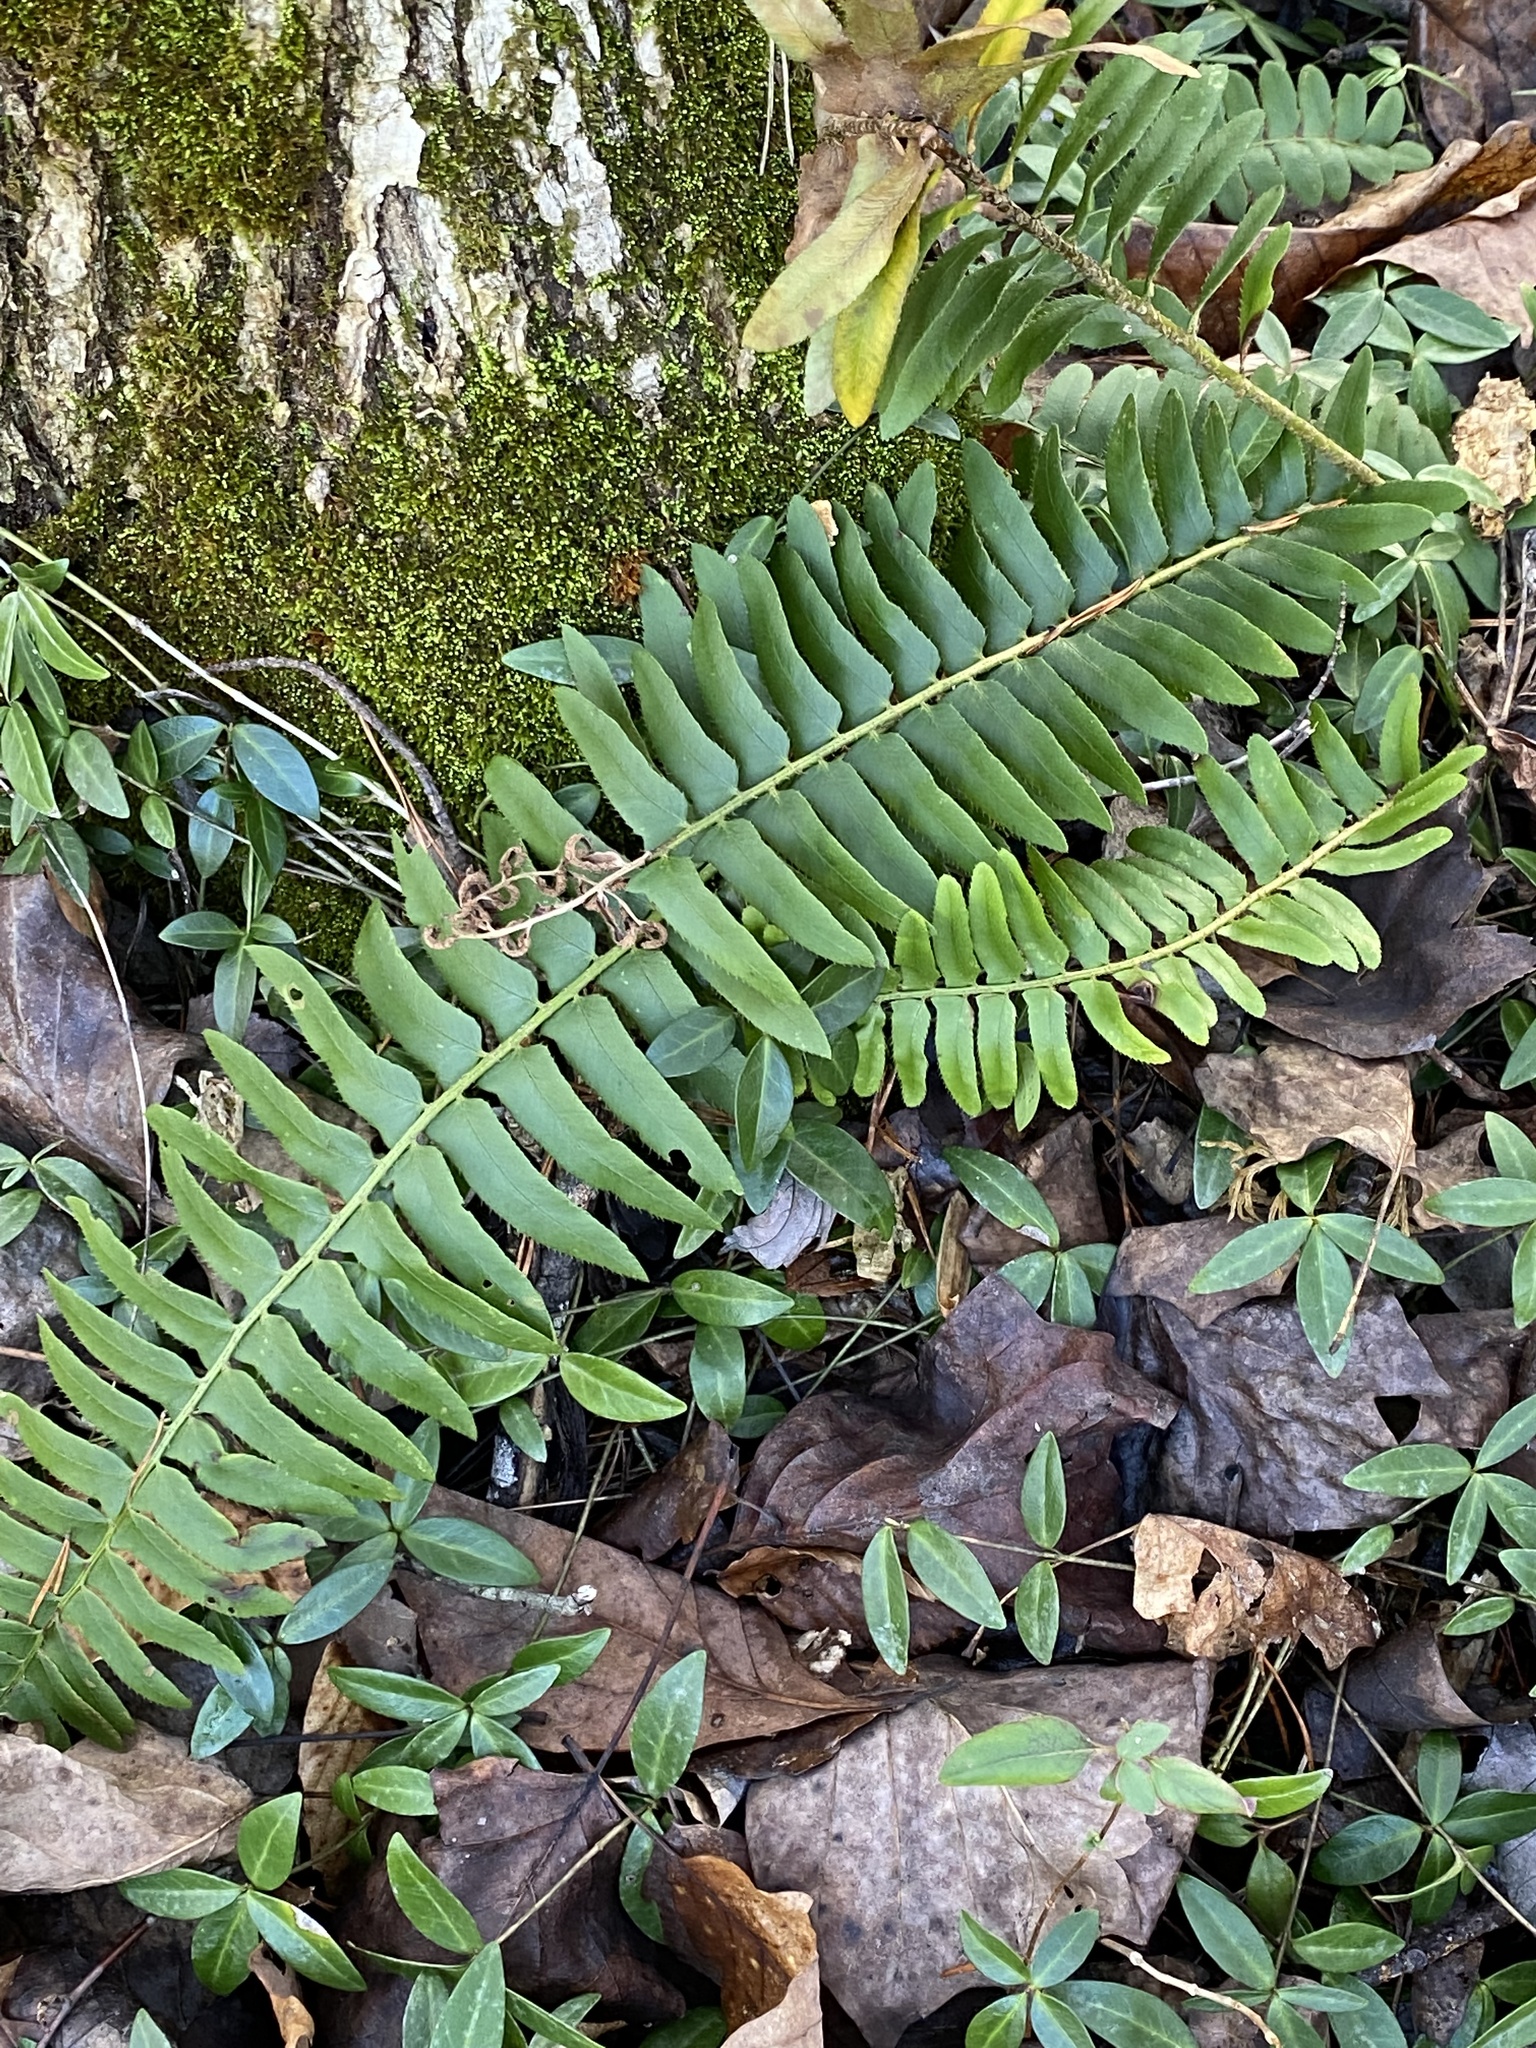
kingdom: Plantae
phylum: Tracheophyta
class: Polypodiopsida
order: Polypodiales
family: Dryopteridaceae
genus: Polystichum
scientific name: Polystichum acrostichoides
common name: Christmas fern
